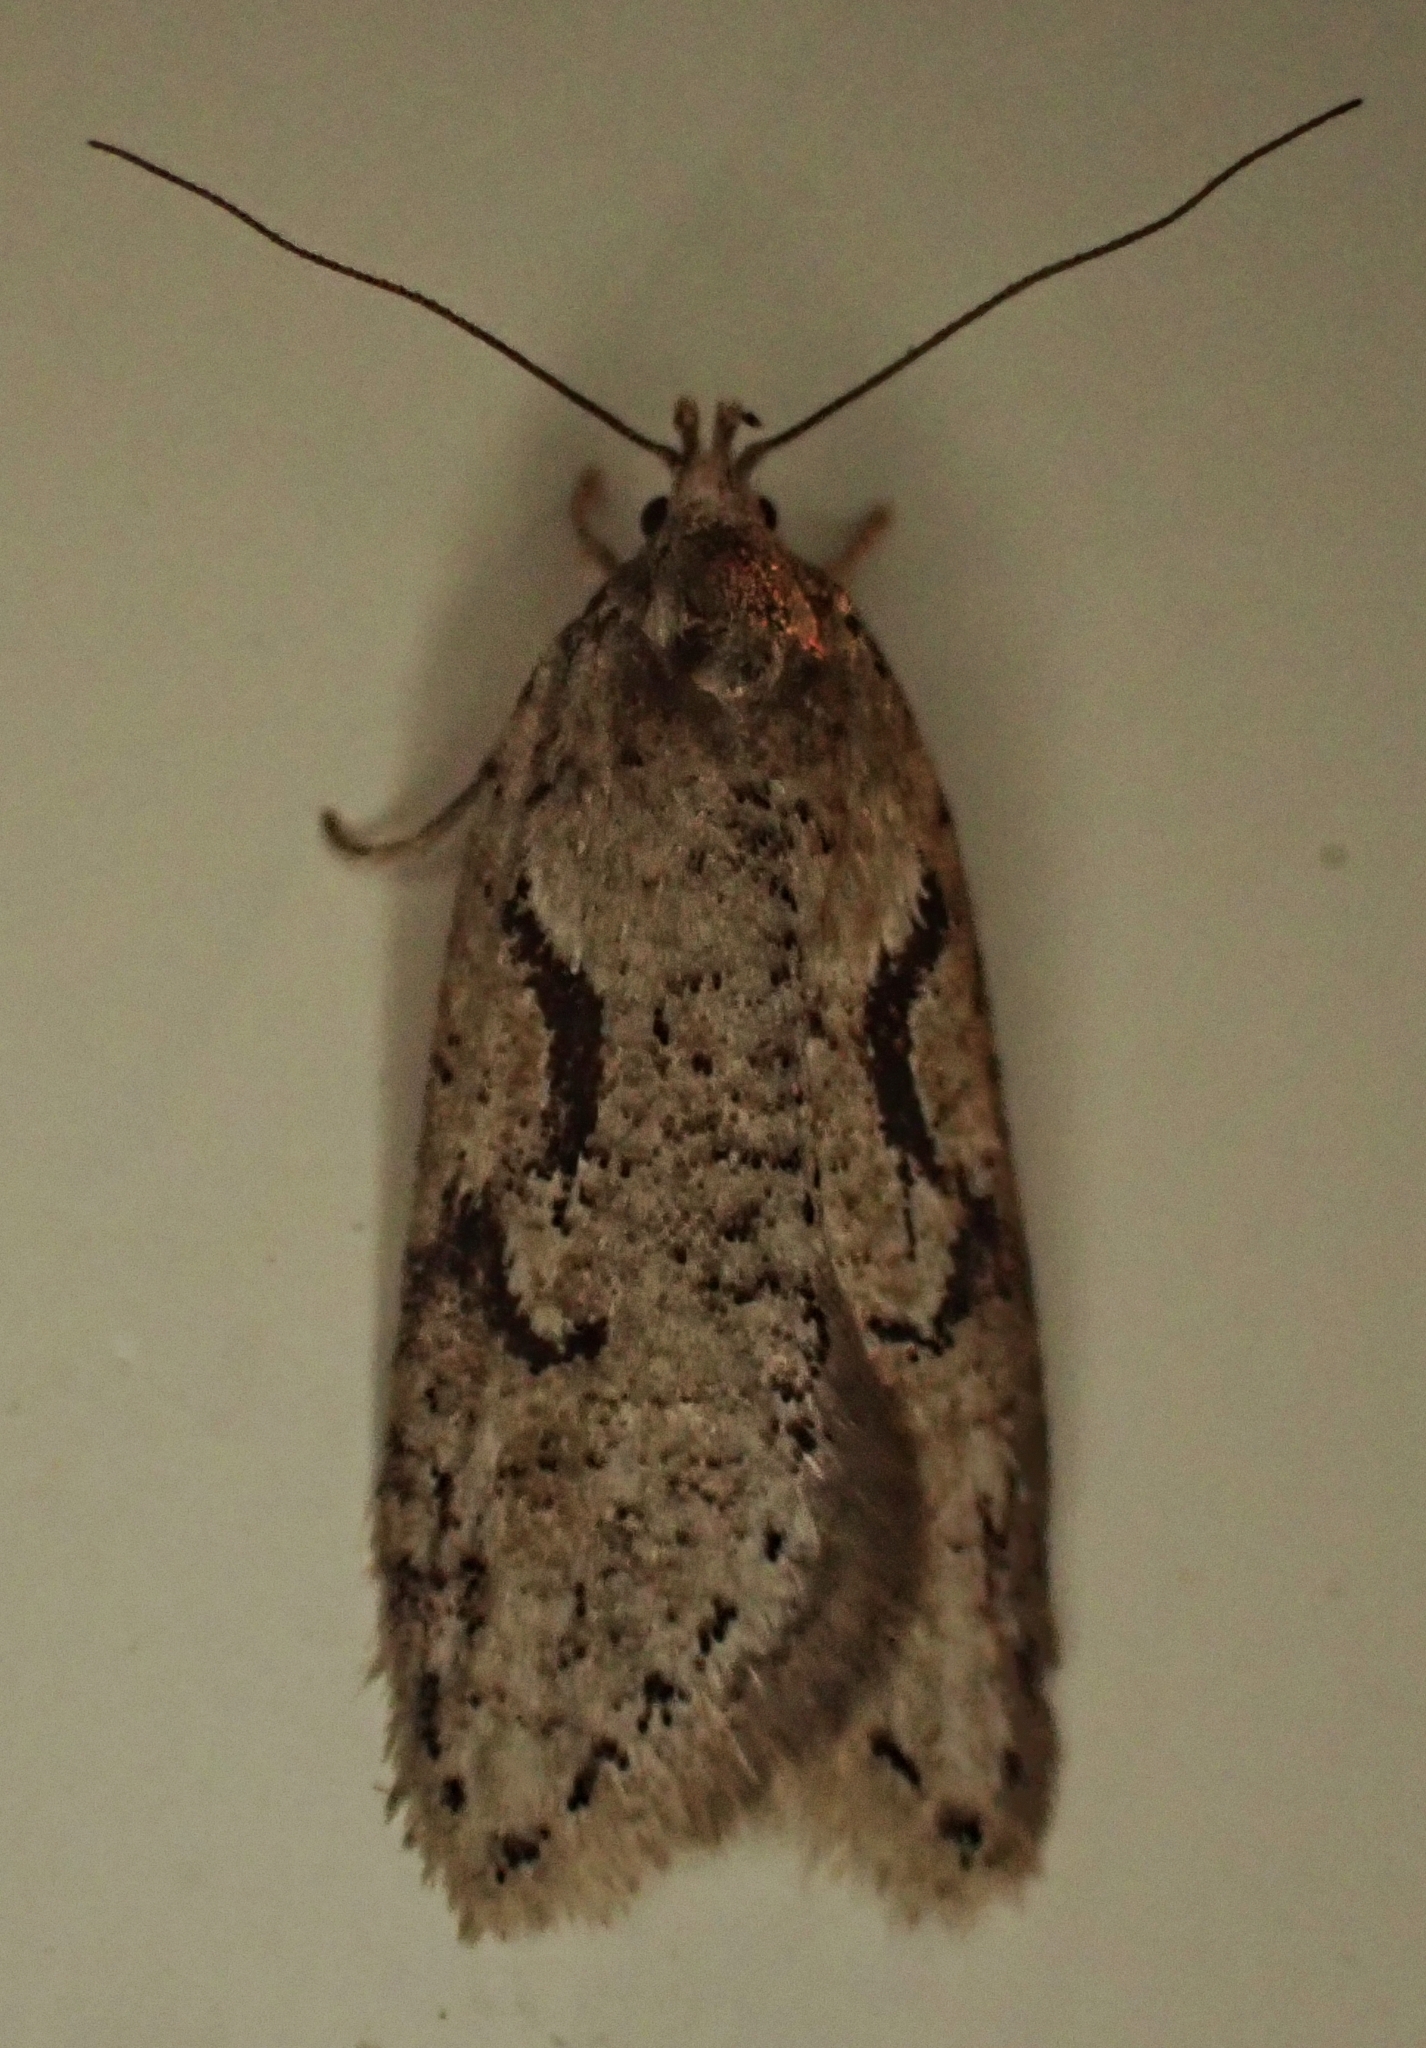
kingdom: Animalia
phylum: Arthropoda
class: Insecta
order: Lepidoptera
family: Depressariidae
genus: Semioscopis
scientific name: Semioscopis steinkellneriana
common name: Dawn flat-body
